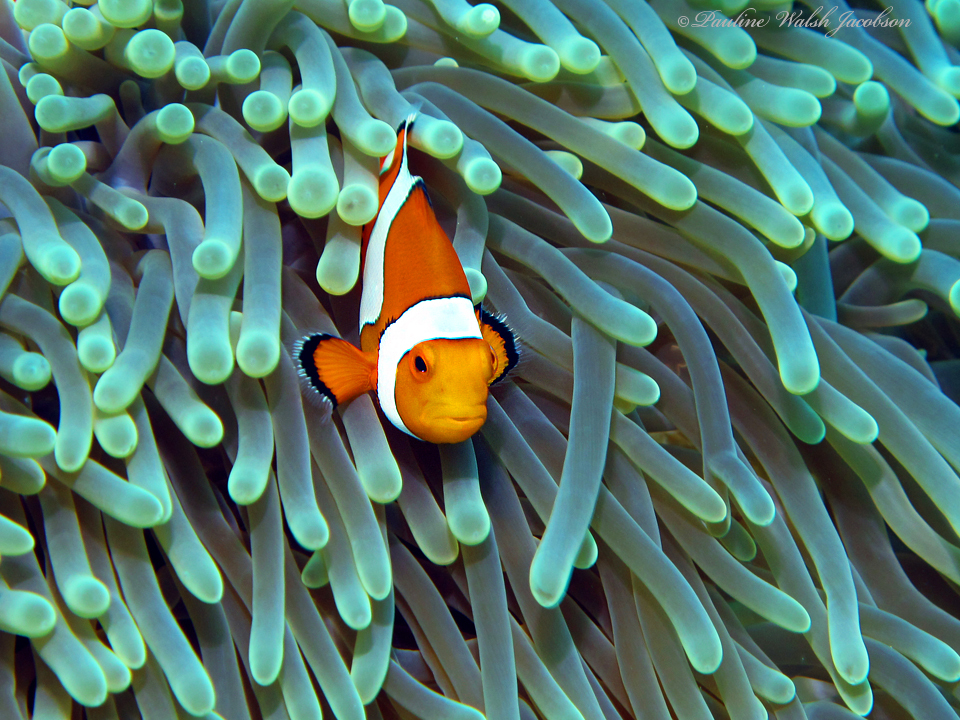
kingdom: Animalia
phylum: Chordata
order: Perciformes
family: Pomacentridae
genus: Amphiprion
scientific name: Amphiprion ocellaris
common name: Clown anemonefish
